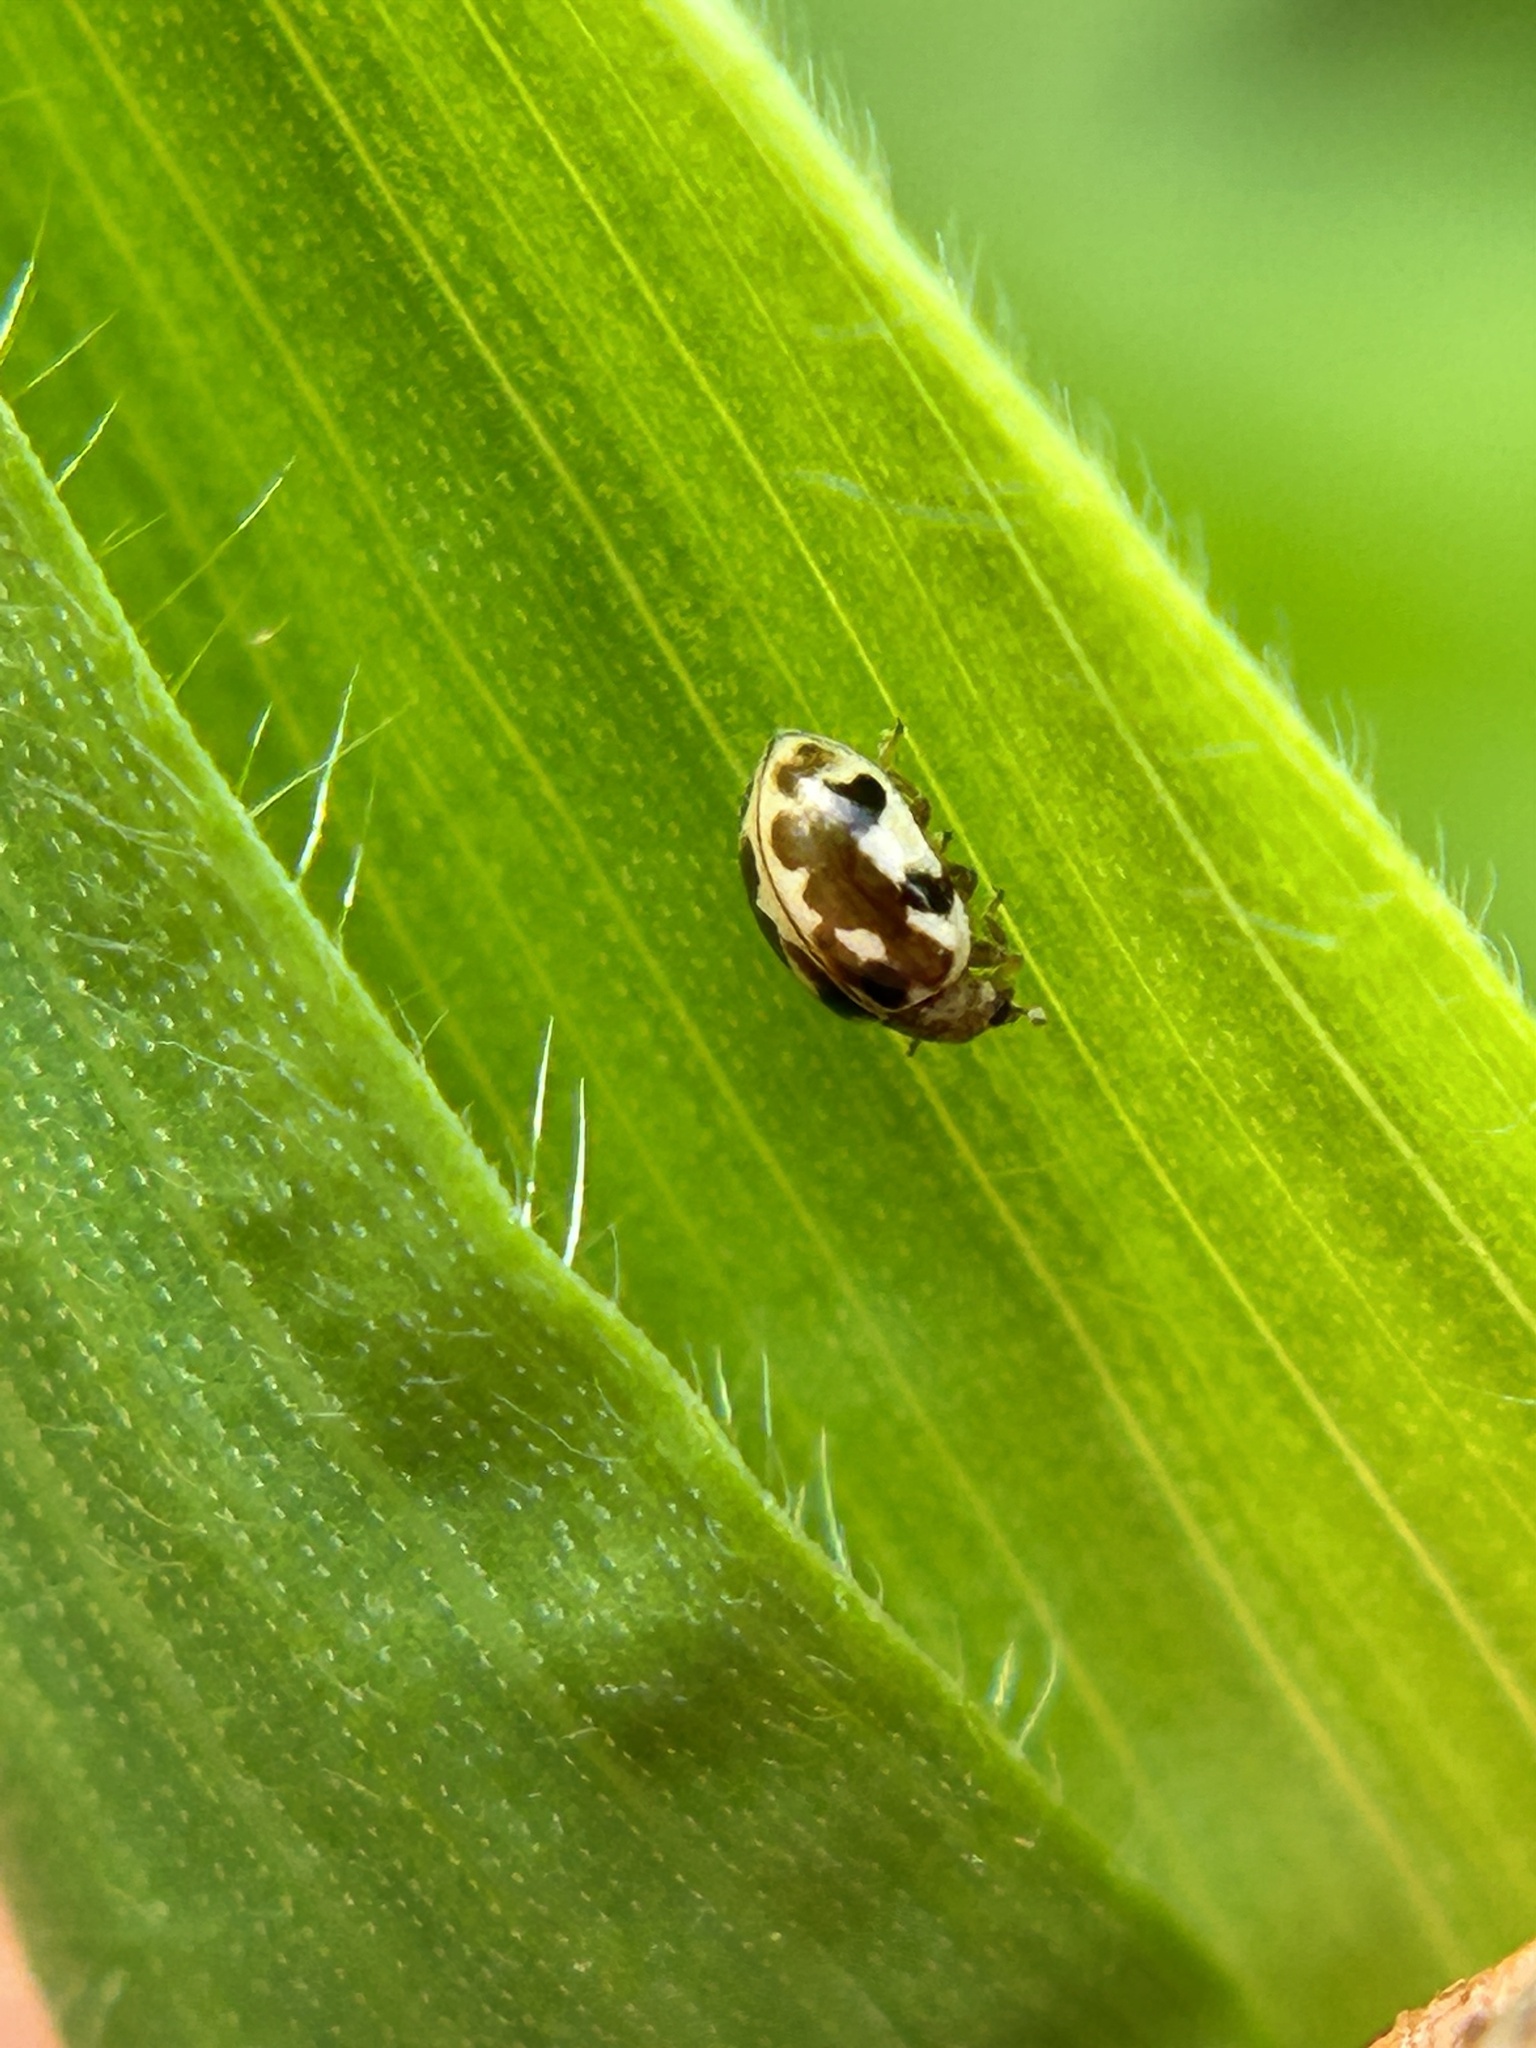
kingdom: Animalia
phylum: Arthropoda
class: Insecta
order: Coleoptera
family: Coccinellidae
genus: Psyllobora
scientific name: Psyllobora vigintimaculata
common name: Ladybird beetle
